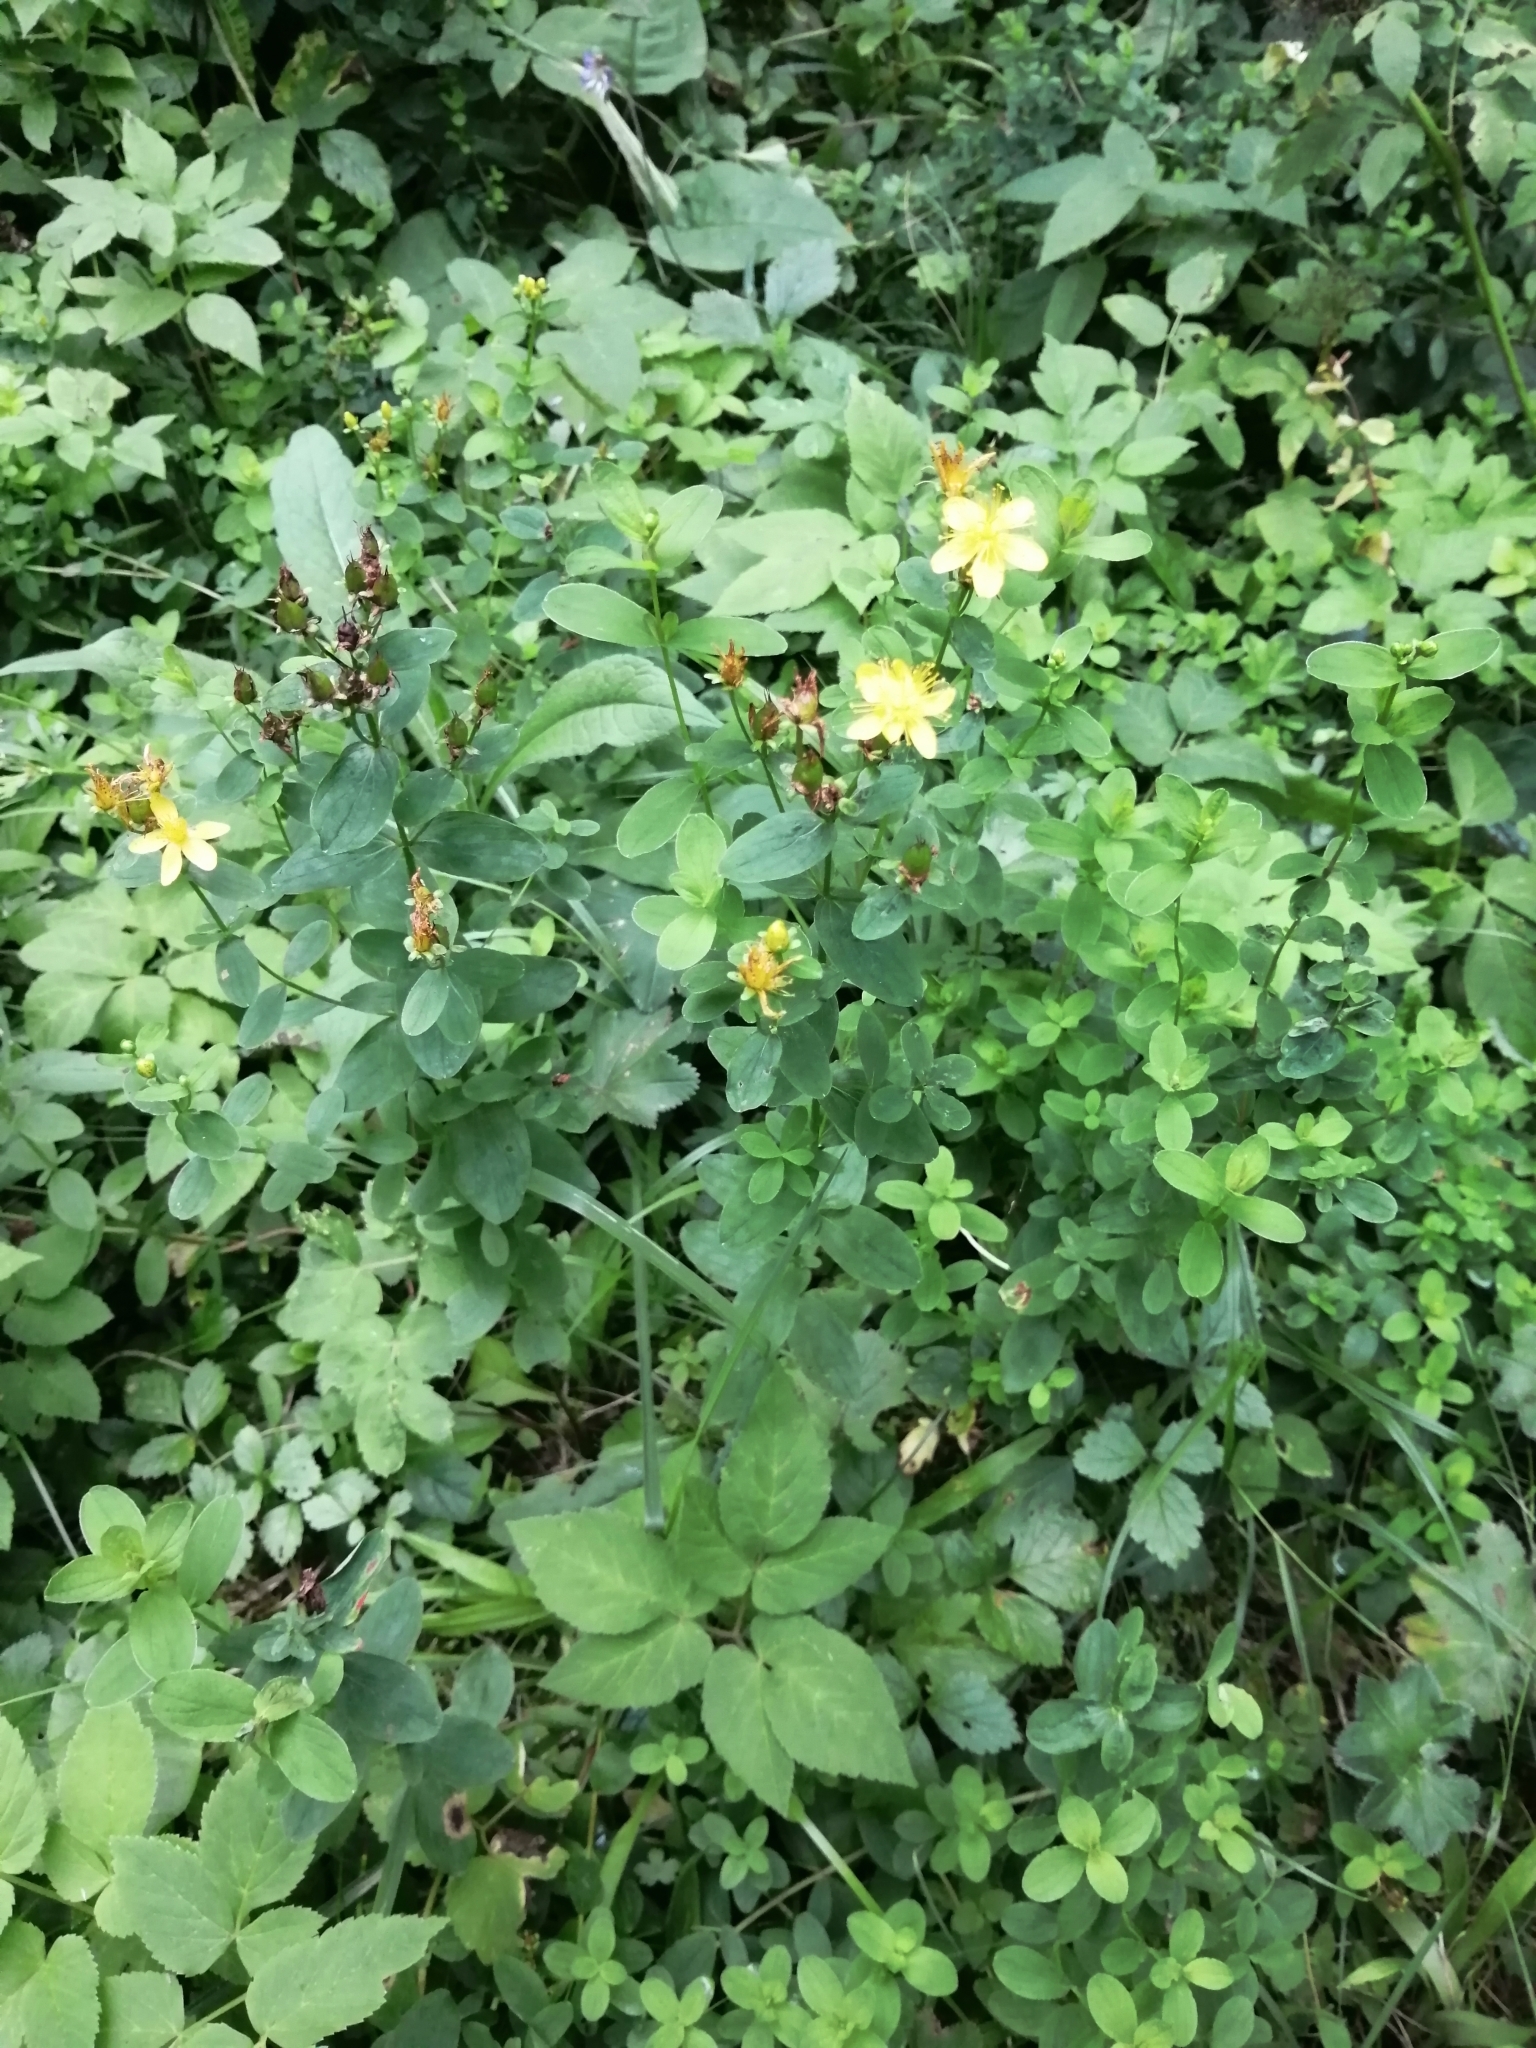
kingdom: Plantae
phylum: Tracheophyta
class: Magnoliopsida
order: Malpighiales
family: Hypericaceae
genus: Hypericum
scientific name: Hypericum maculatum
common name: Imperforate st. john's-wort
